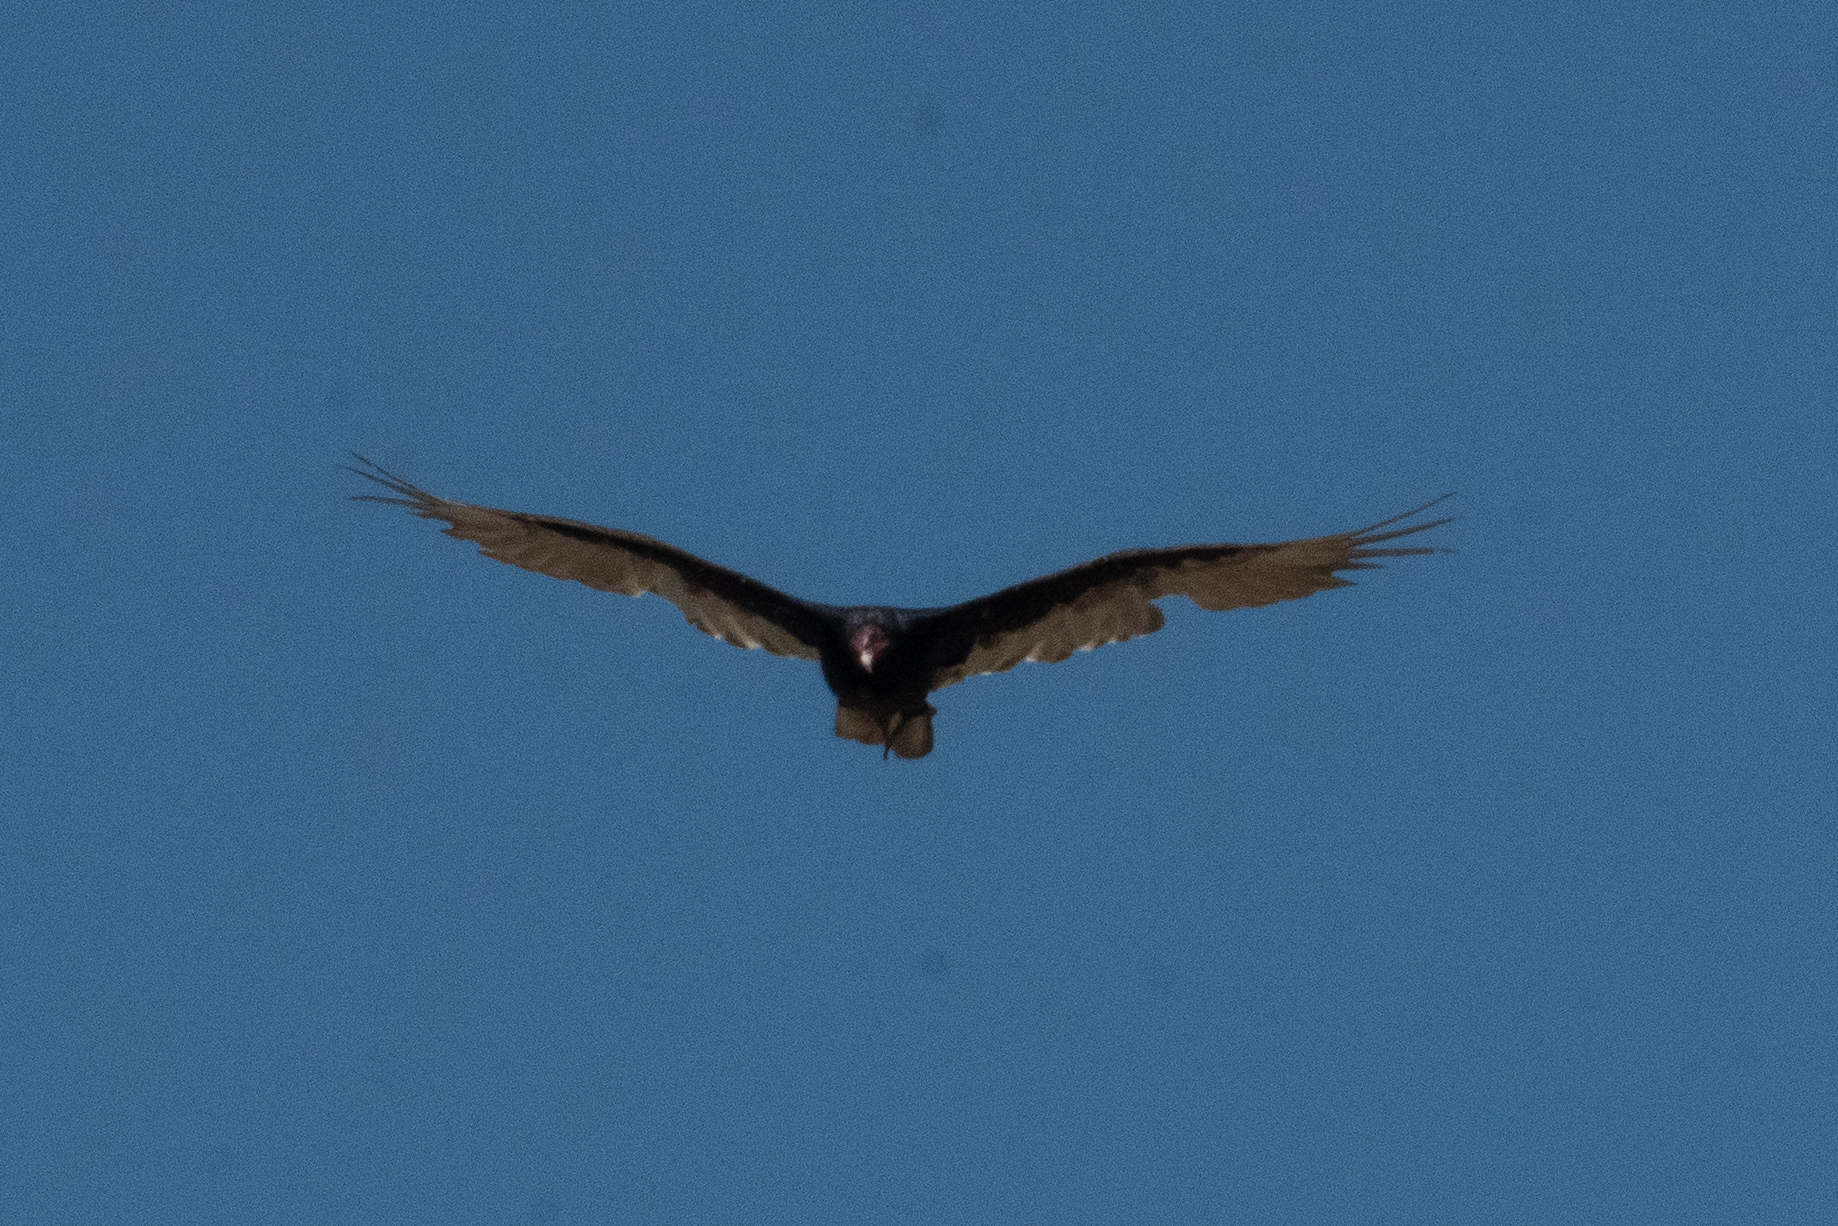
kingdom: Animalia
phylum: Chordata
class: Aves
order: Accipitriformes
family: Cathartidae
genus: Cathartes
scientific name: Cathartes aura
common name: Turkey vulture
